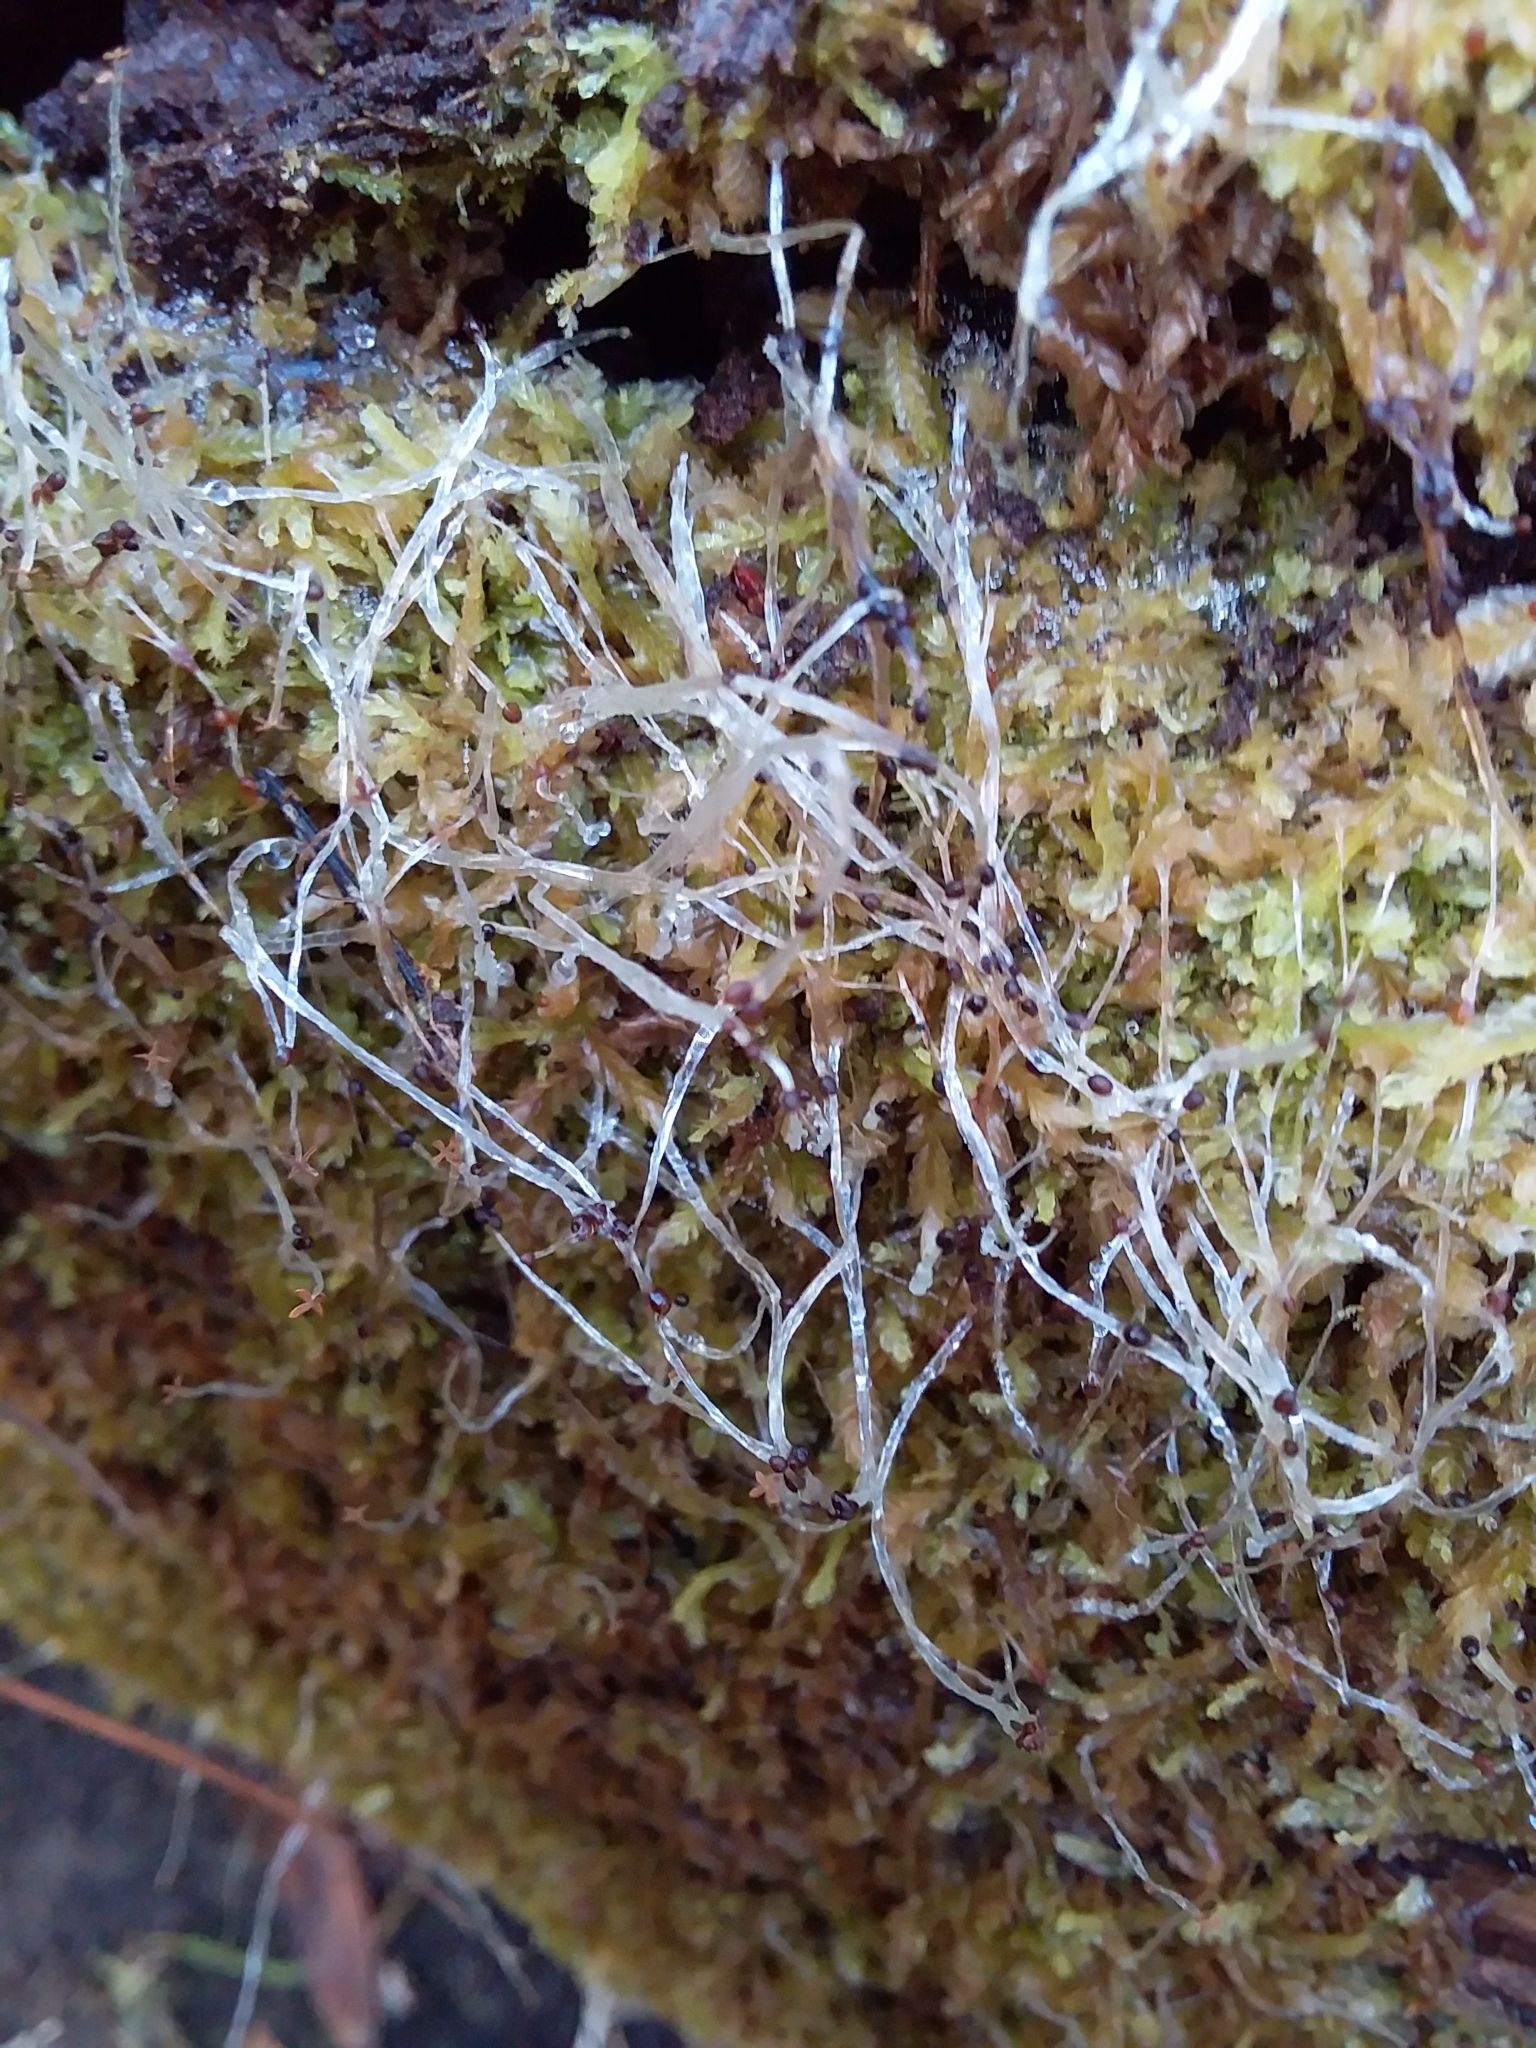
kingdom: Plantae
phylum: Marchantiophyta
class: Jungermanniopsida
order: Jungermanniales
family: Lophocoleaceae
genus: Lophocolea
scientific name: Lophocolea semiteres
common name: Southern crestwort
